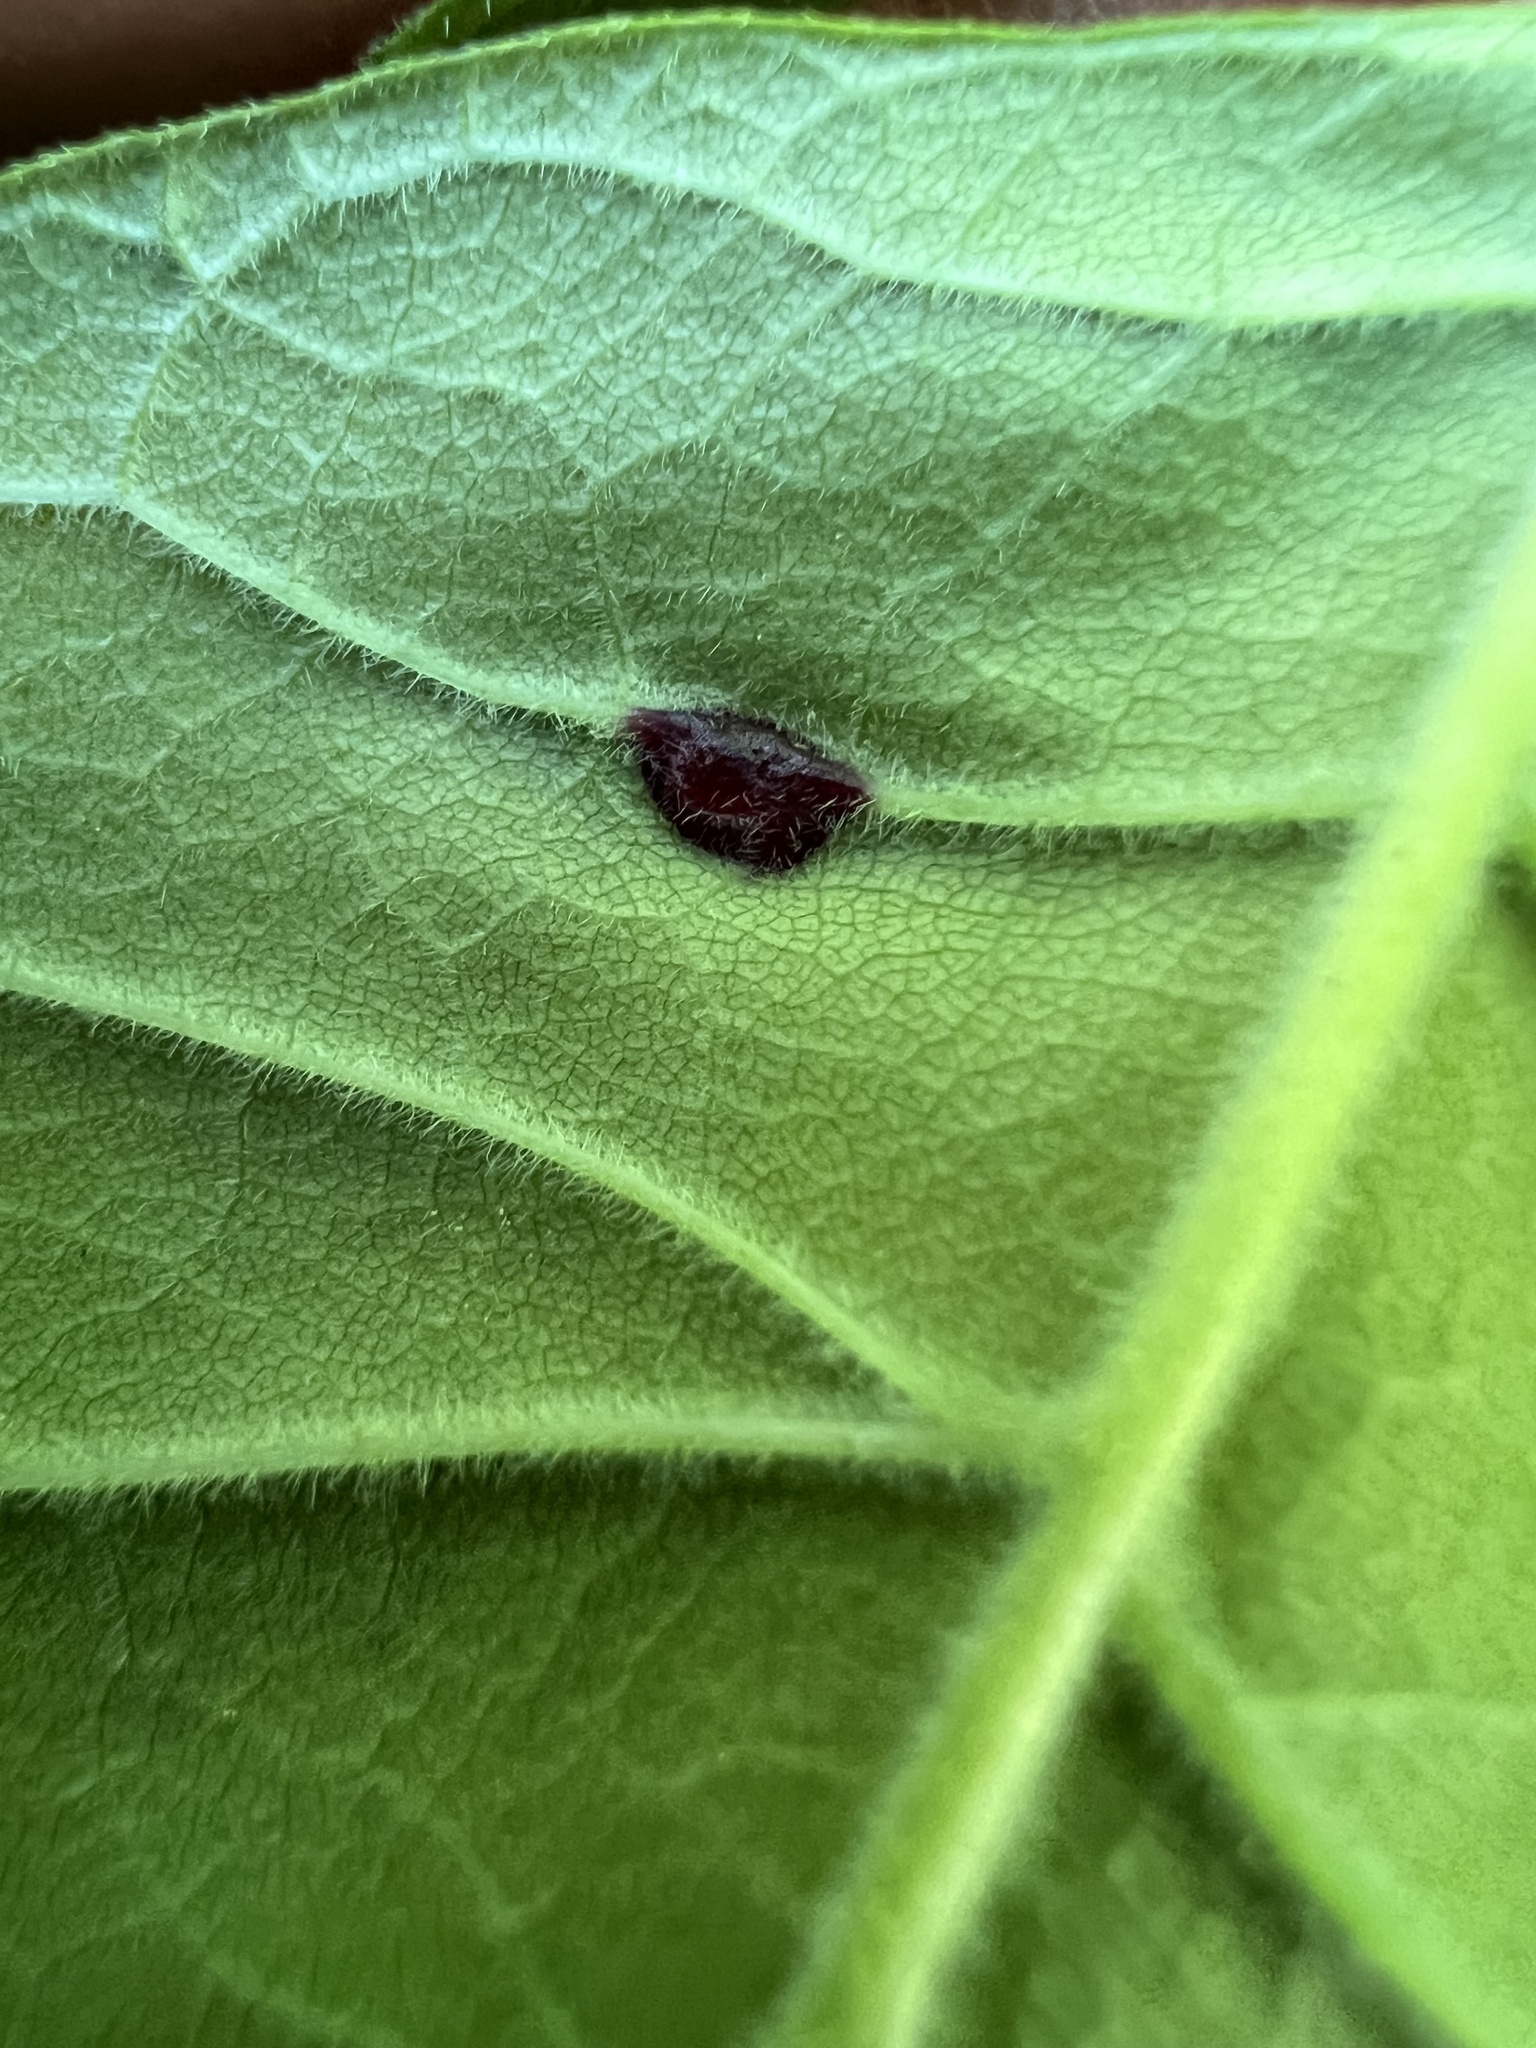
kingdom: Animalia
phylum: Arthropoda
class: Insecta
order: Diptera
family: Cecidomyiidae
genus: Dasineura
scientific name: Dasineura pellex
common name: Ash bullet gall midge
